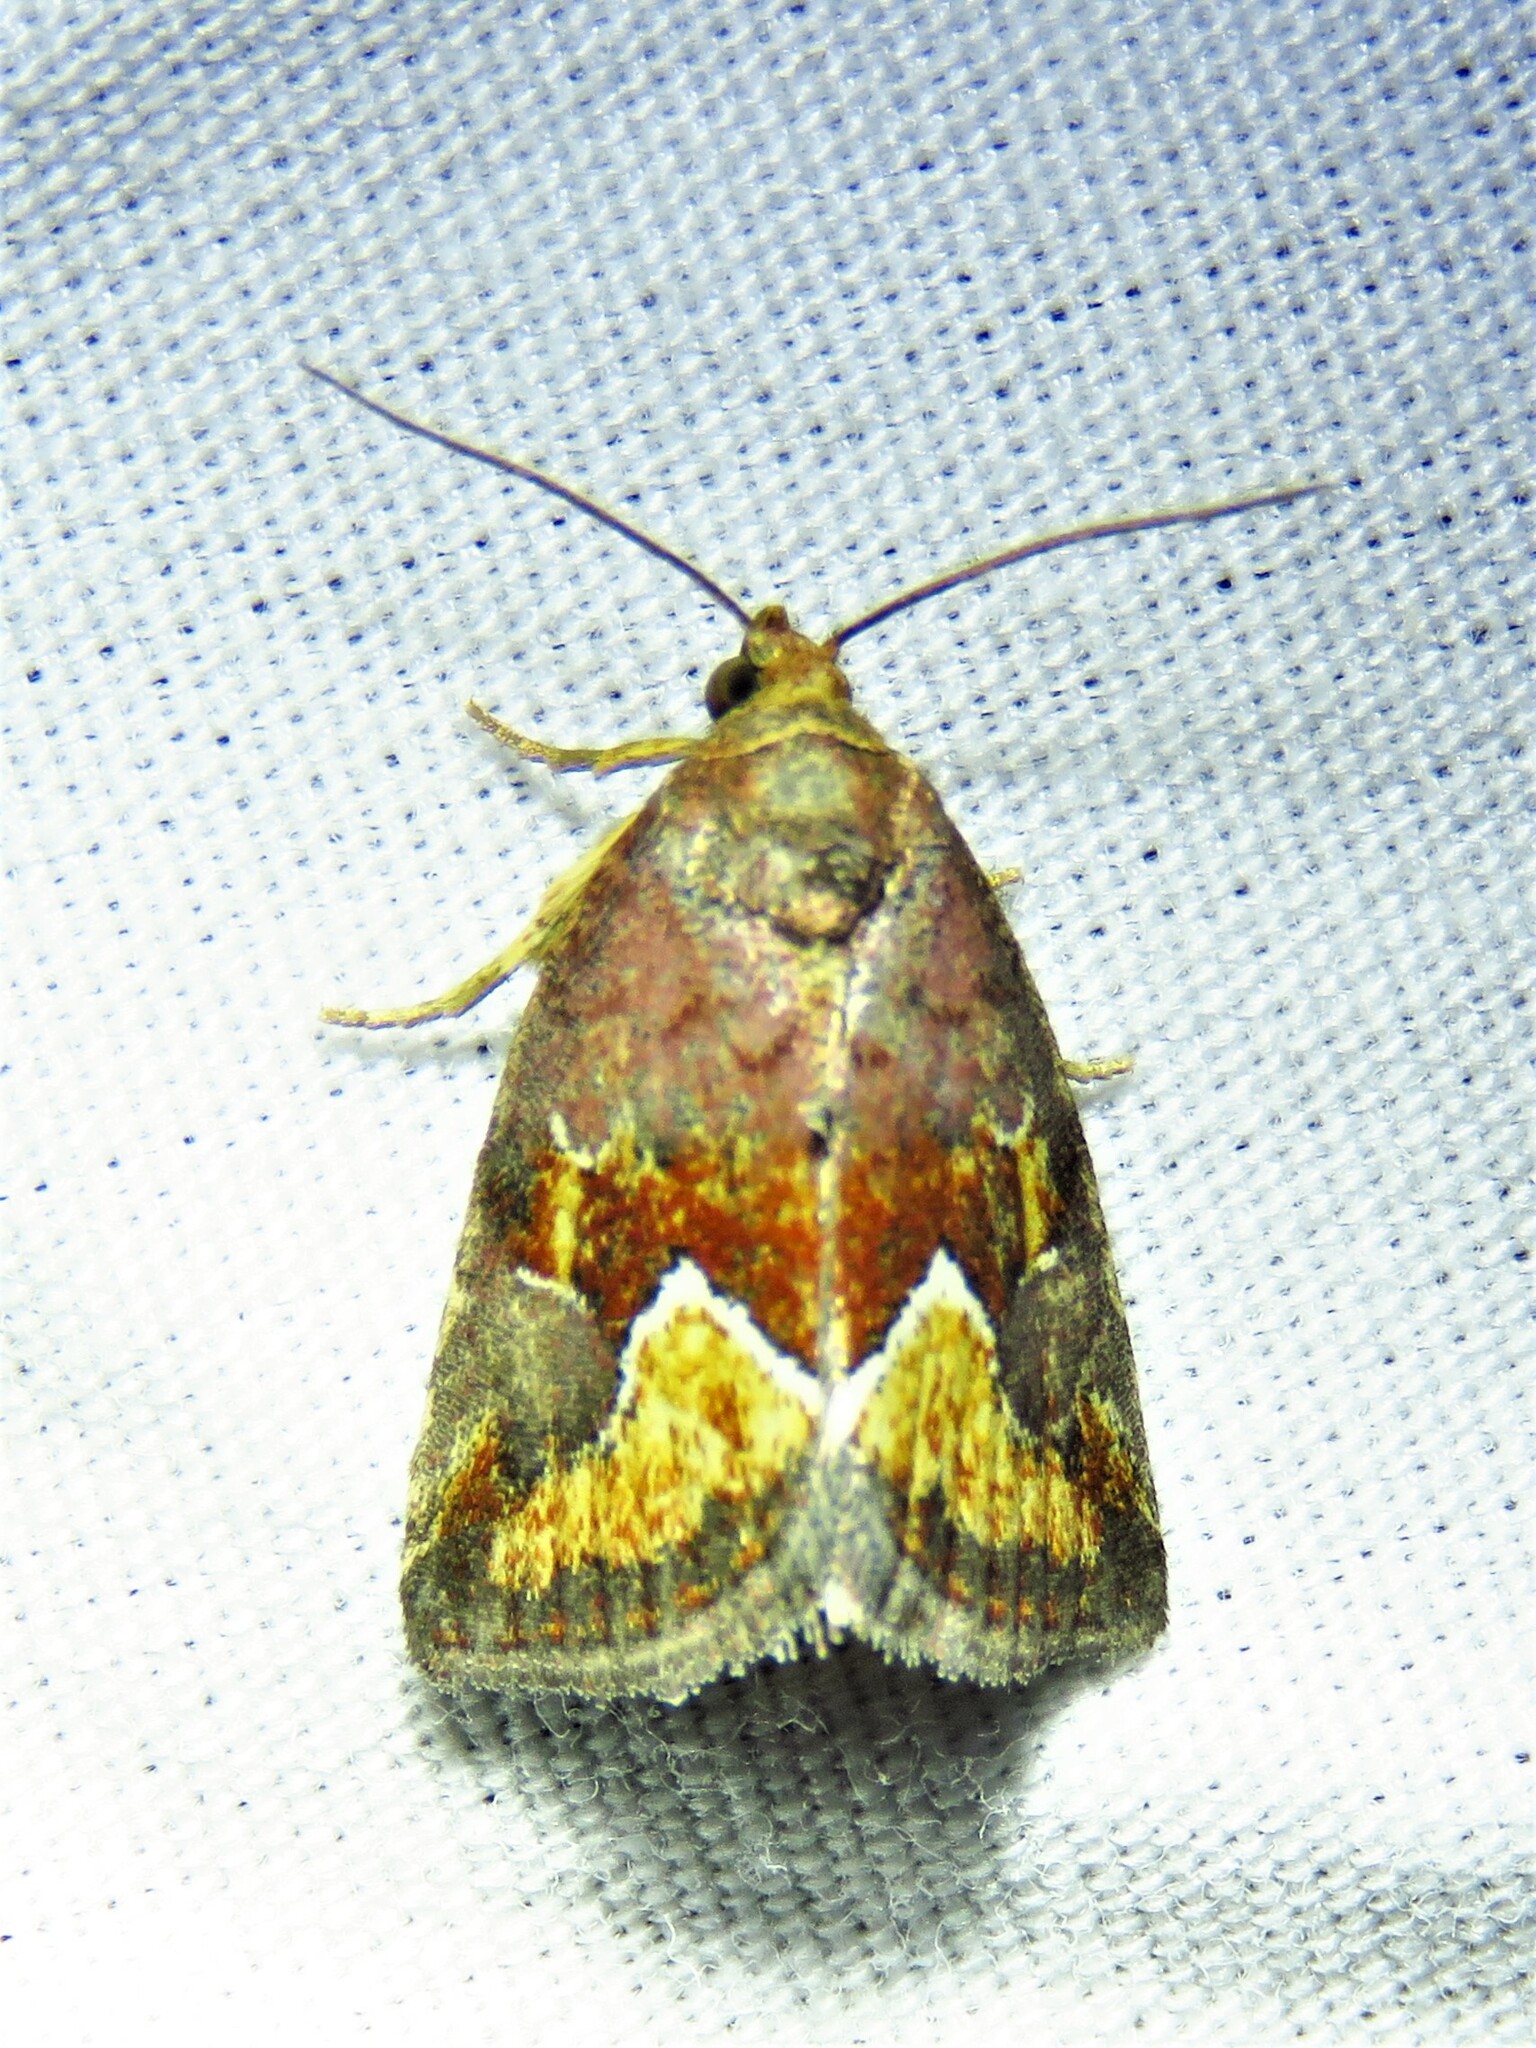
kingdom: Animalia
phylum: Arthropoda
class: Insecta
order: Lepidoptera
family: Noctuidae
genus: Deltote
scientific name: Deltote bellicula
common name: Bog glyph
